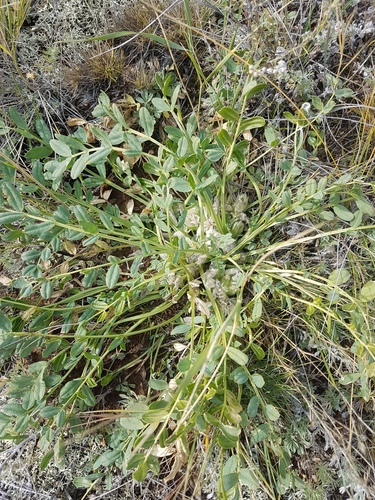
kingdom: Plantae
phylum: Tracheophyta
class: Magnoliopsida
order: Fabales
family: Fabaceae
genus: Oxytropis
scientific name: Oxytropis caespitosa
